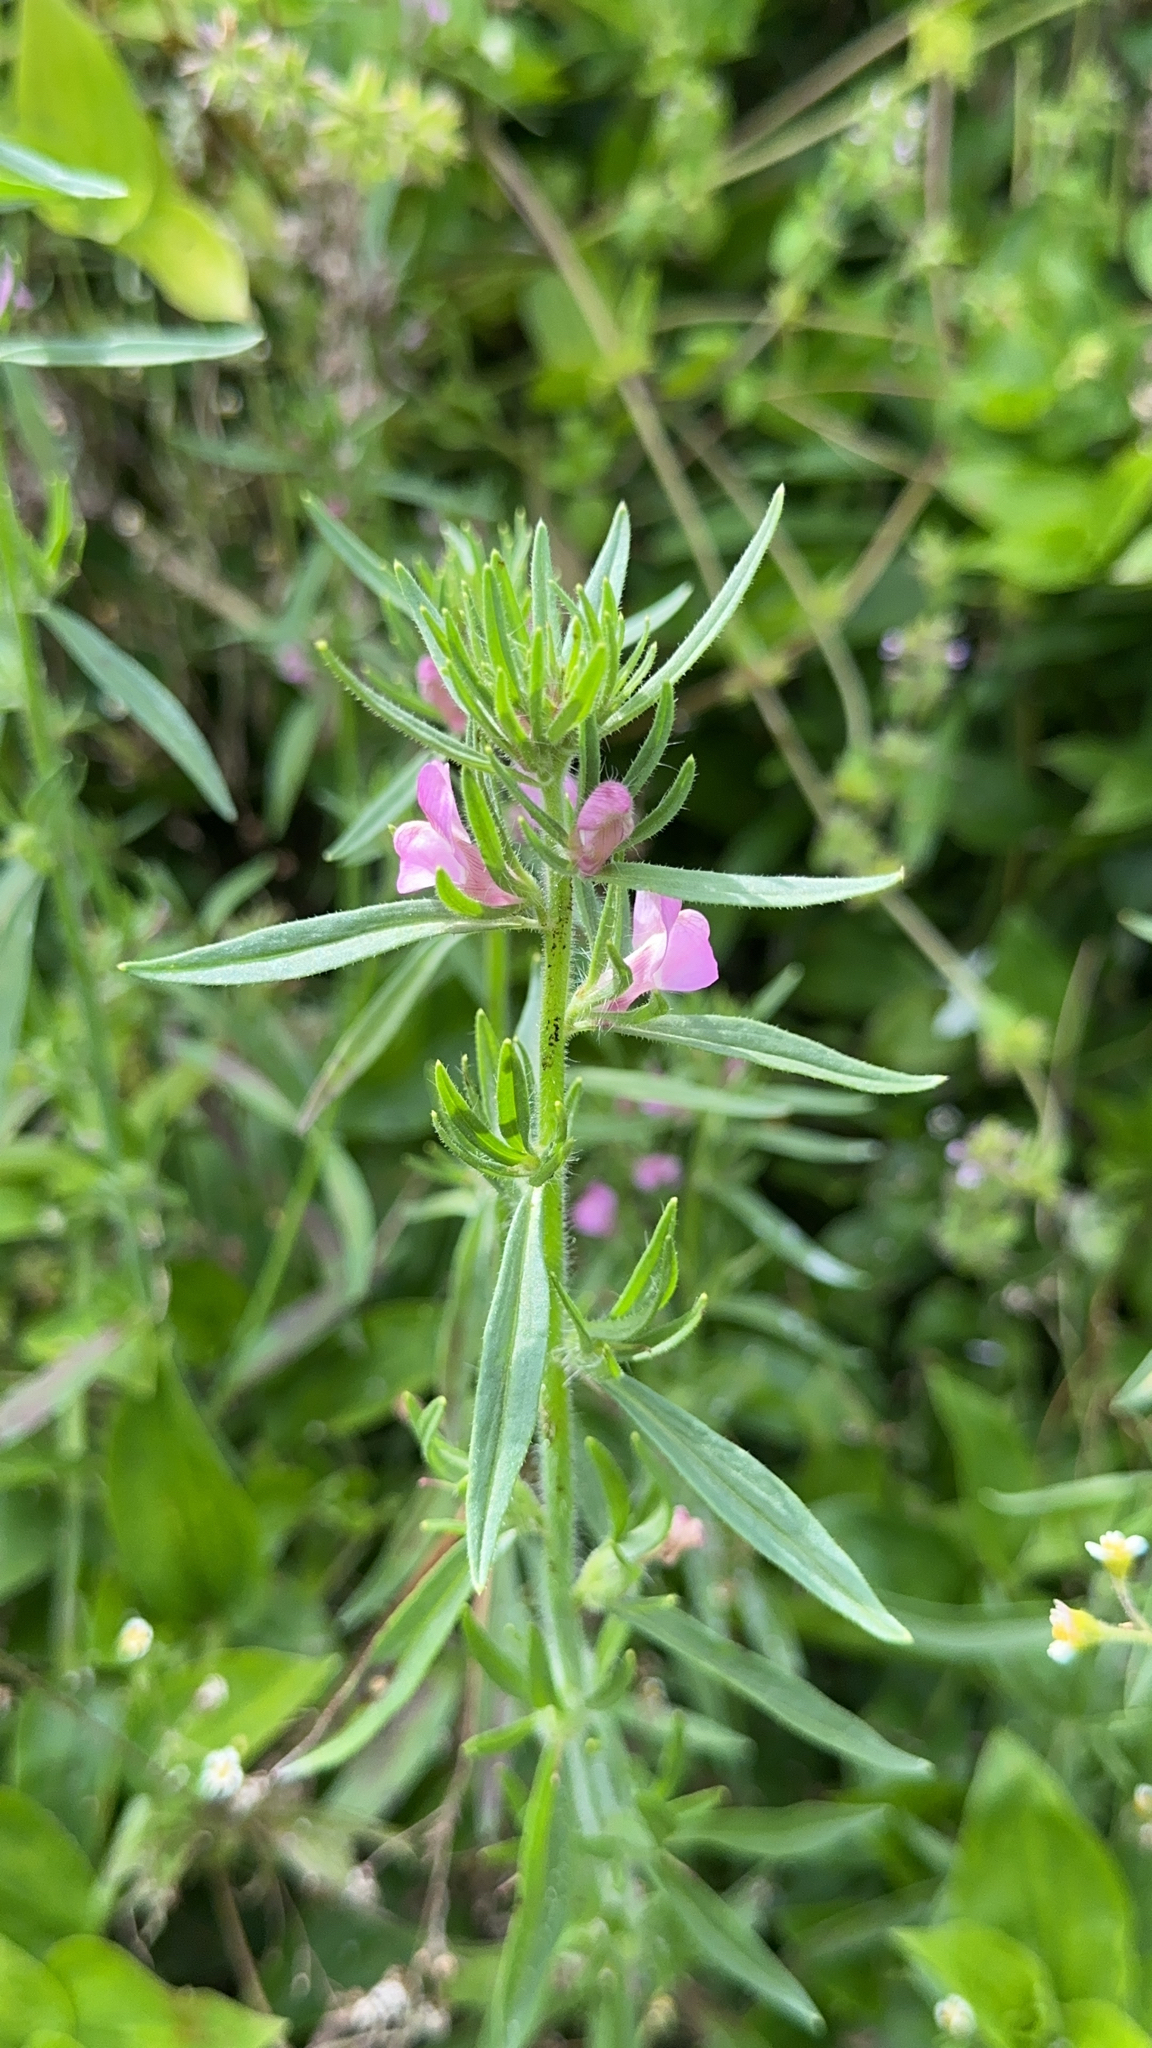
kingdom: Plantae
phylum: Tracheophyta
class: Magnoliopsida
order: Lamiales
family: Plantaginaceae
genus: Misopates
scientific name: Misopates orontium
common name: Weasel's-snout
